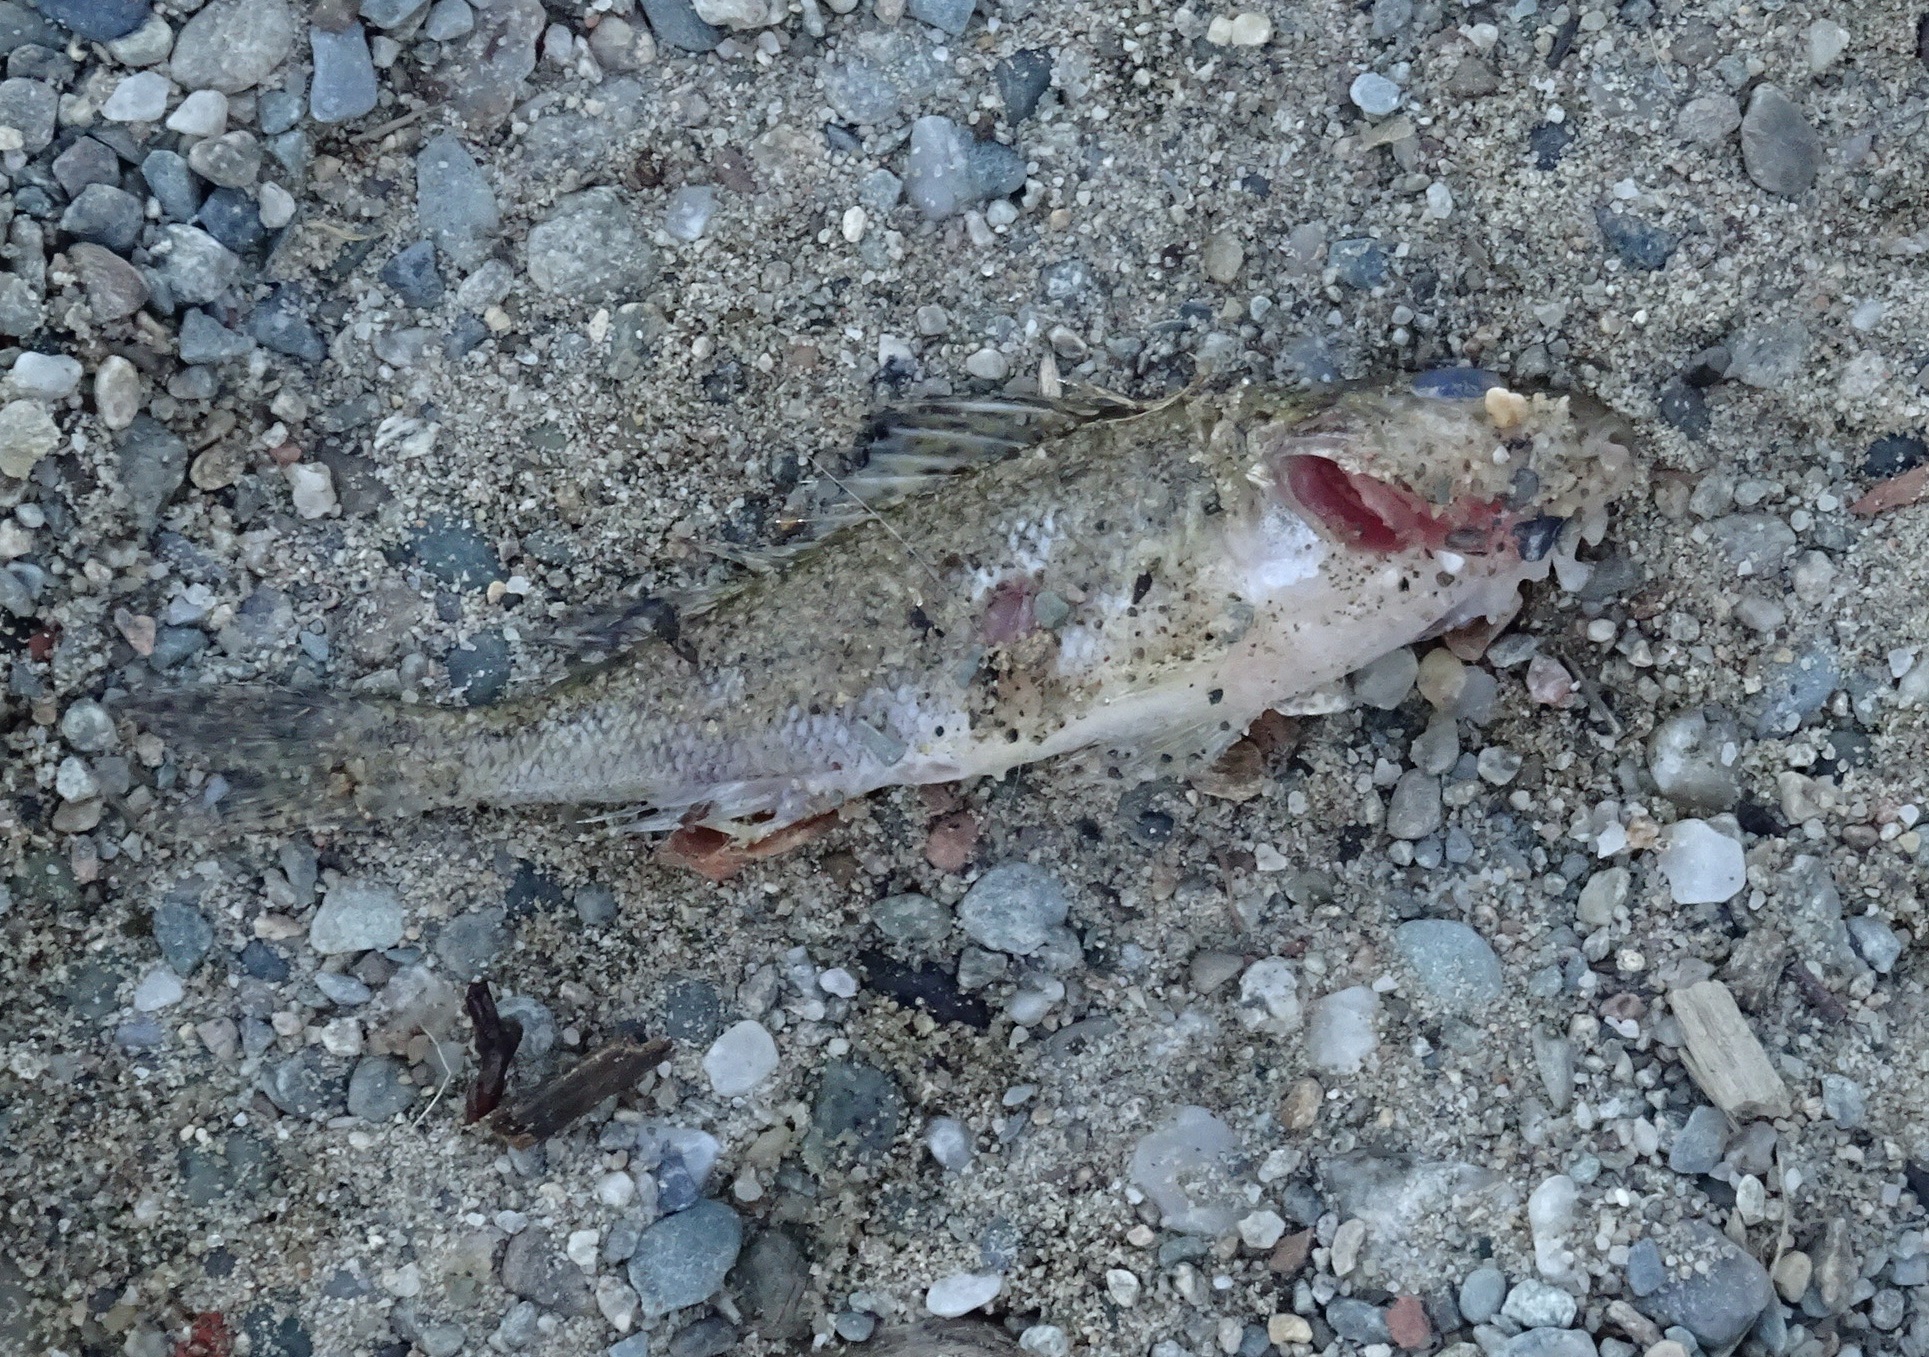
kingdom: Animalia
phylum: Chordata
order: Perciformes
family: Percidae
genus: Gymnocephalus
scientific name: Gymnocephalus cernua
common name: Ruffe
